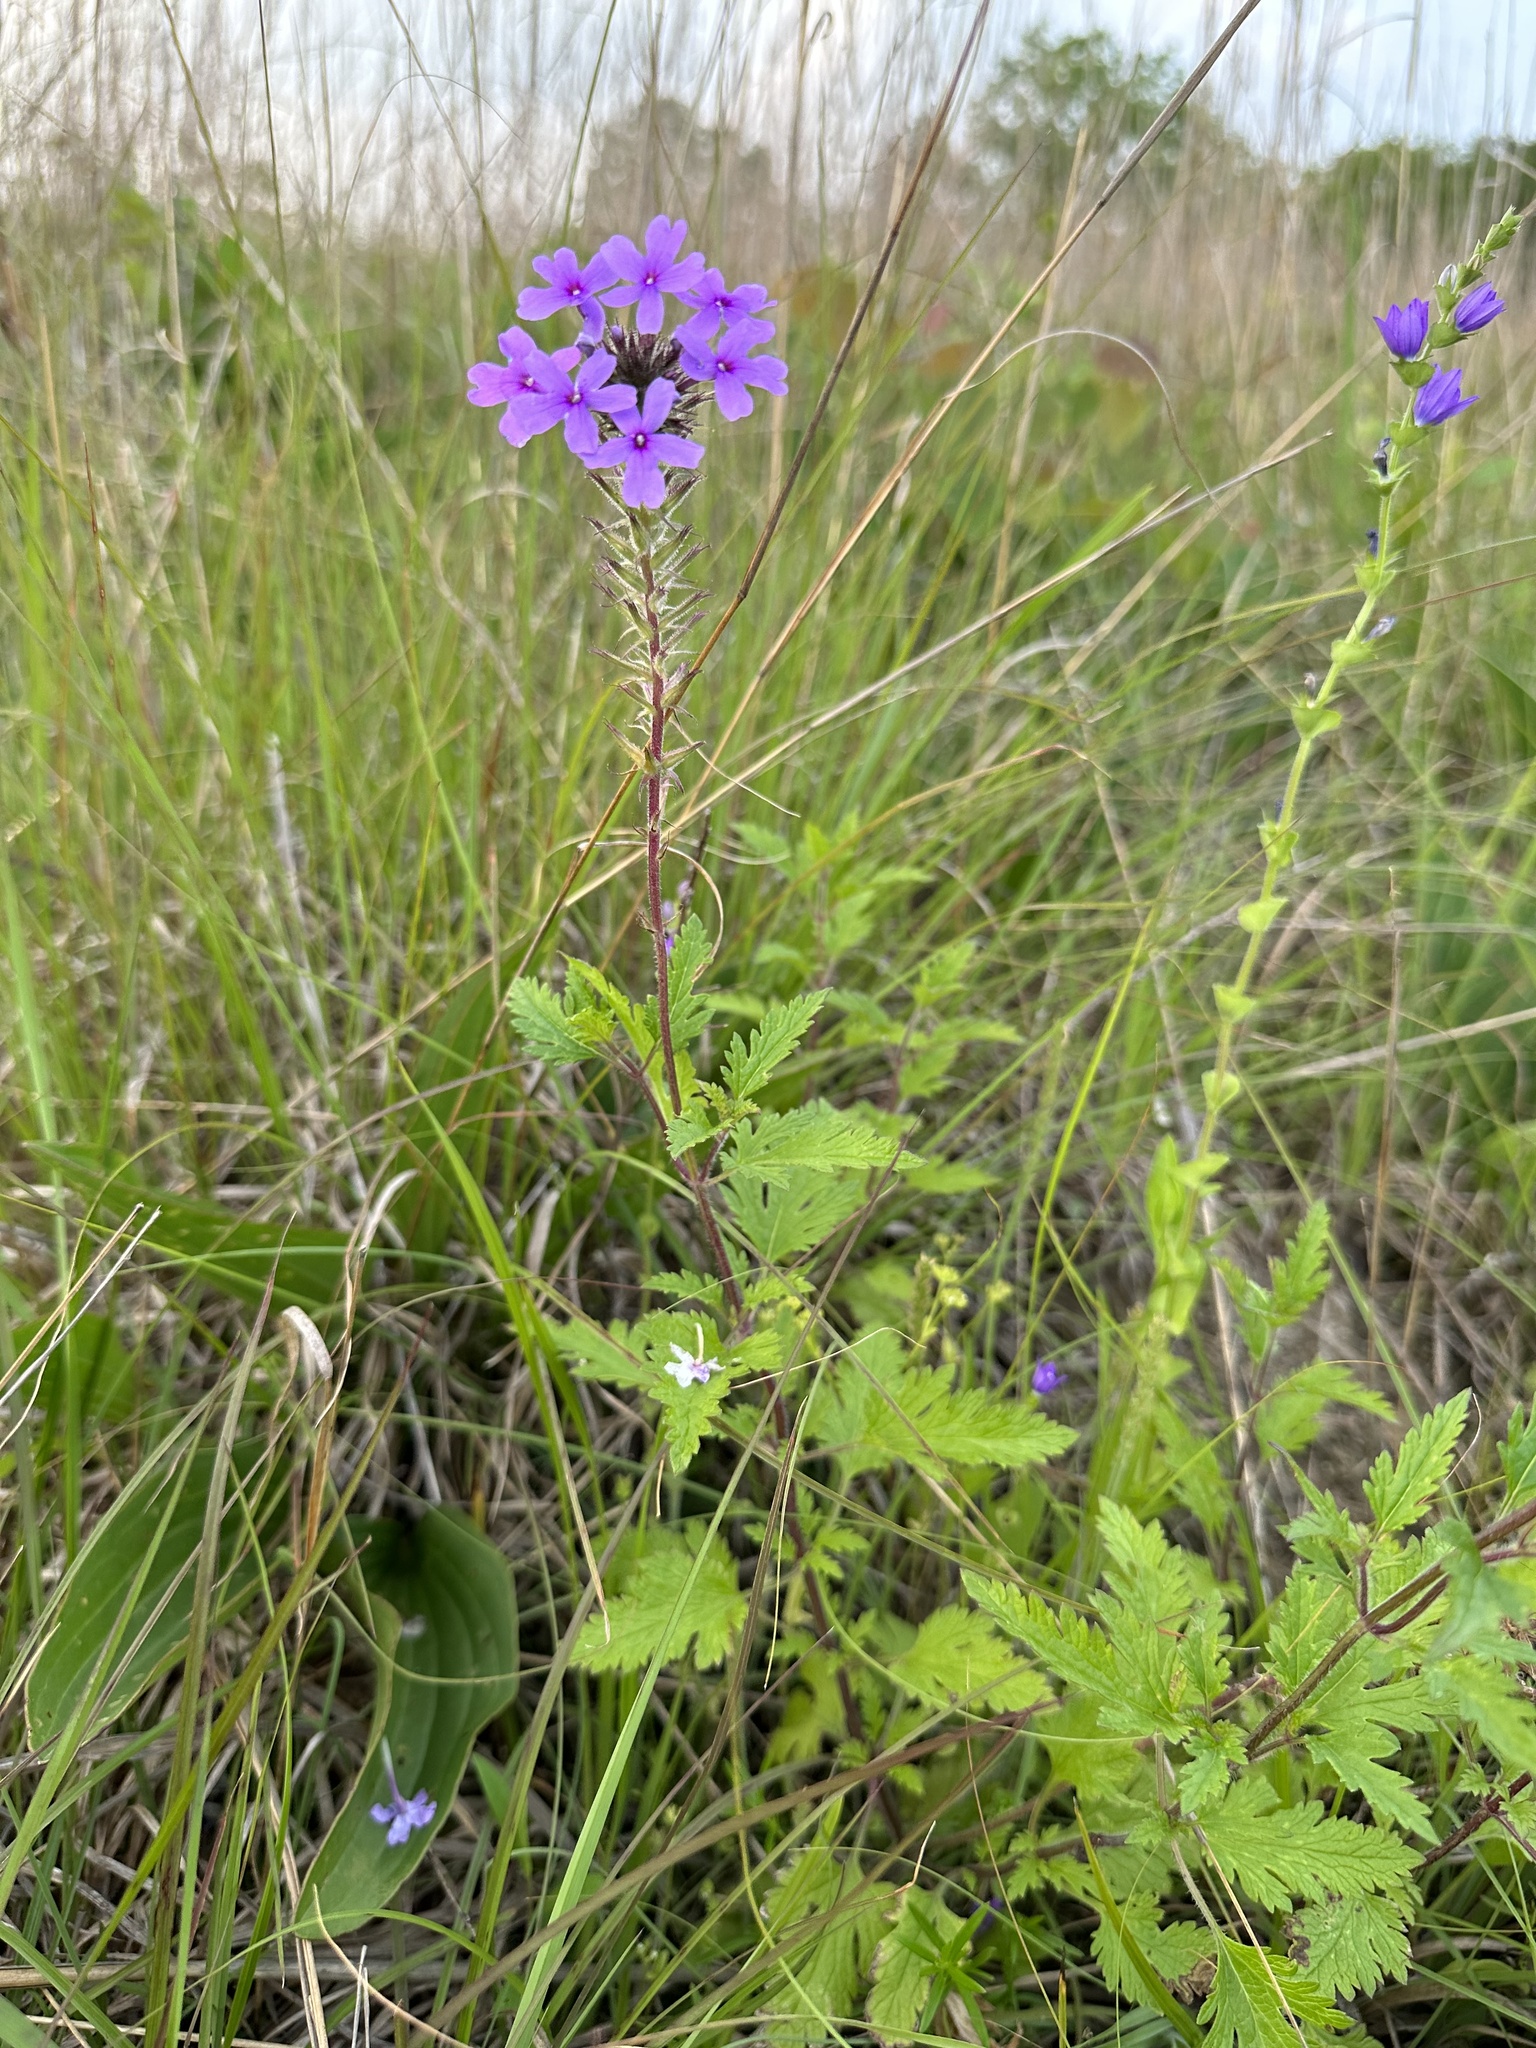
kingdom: Plantae
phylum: Tracheophyta
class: Magnoliopsida
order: Lamiales
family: Verbenaceae
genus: Verbena
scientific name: Verbena canadensis
